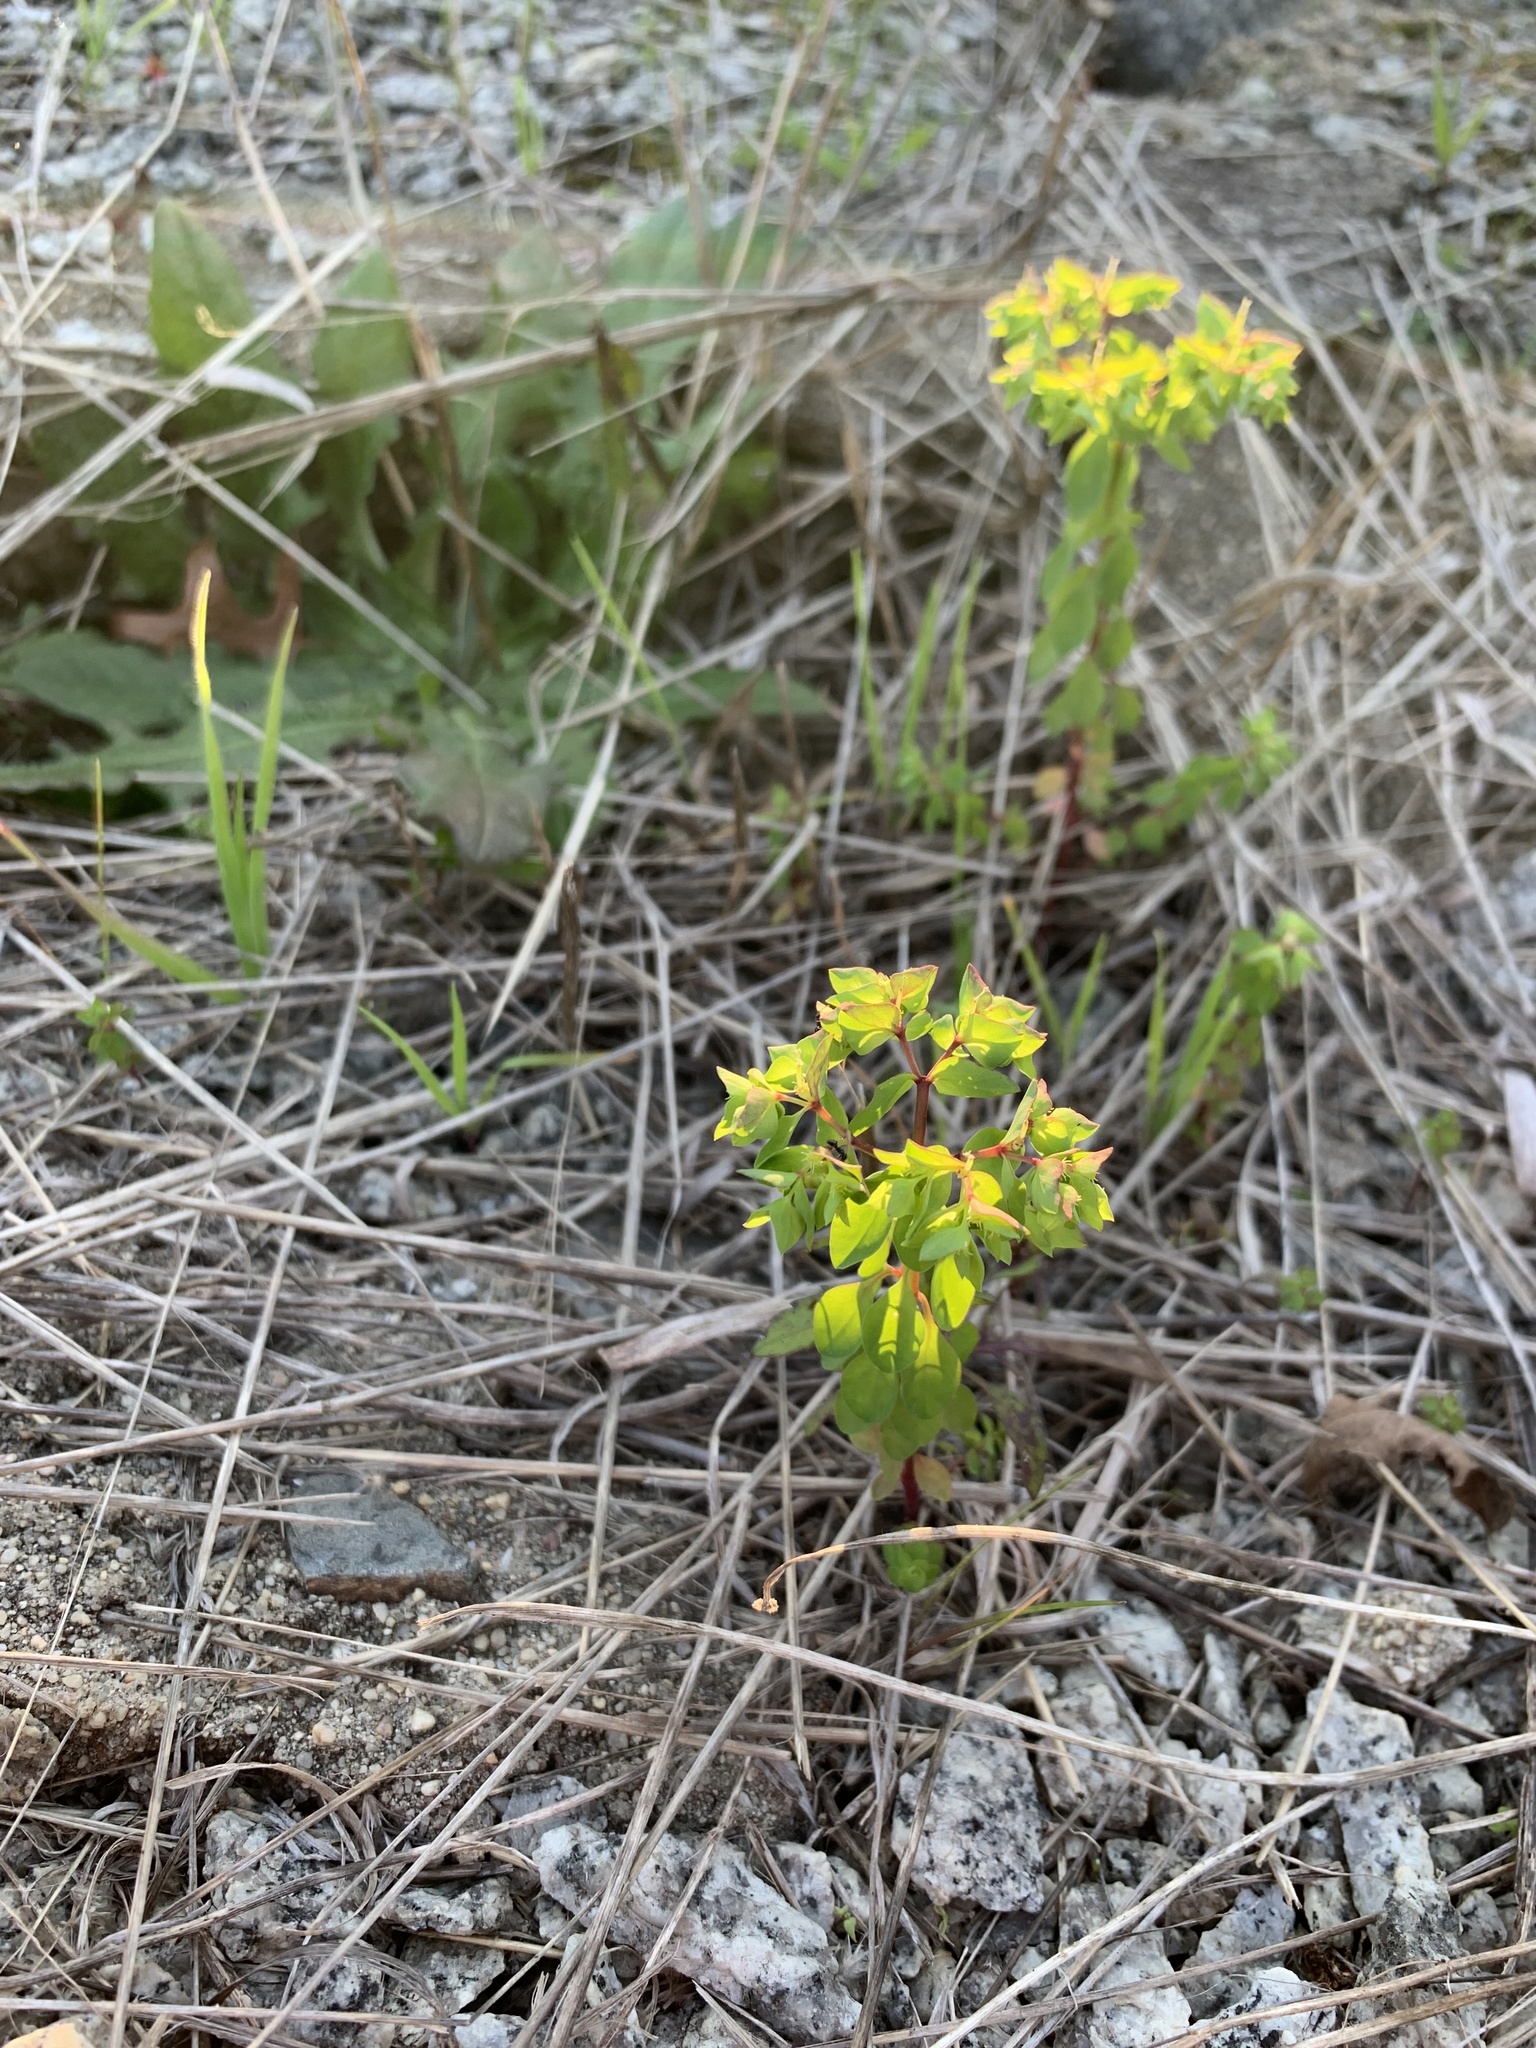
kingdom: Plantae
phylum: Tracheophyta
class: Magnoliopsida
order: Malpighiales
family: Euphorbiaceae
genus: Euphorbia
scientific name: Euphorbia peplus
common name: Petty spurge
